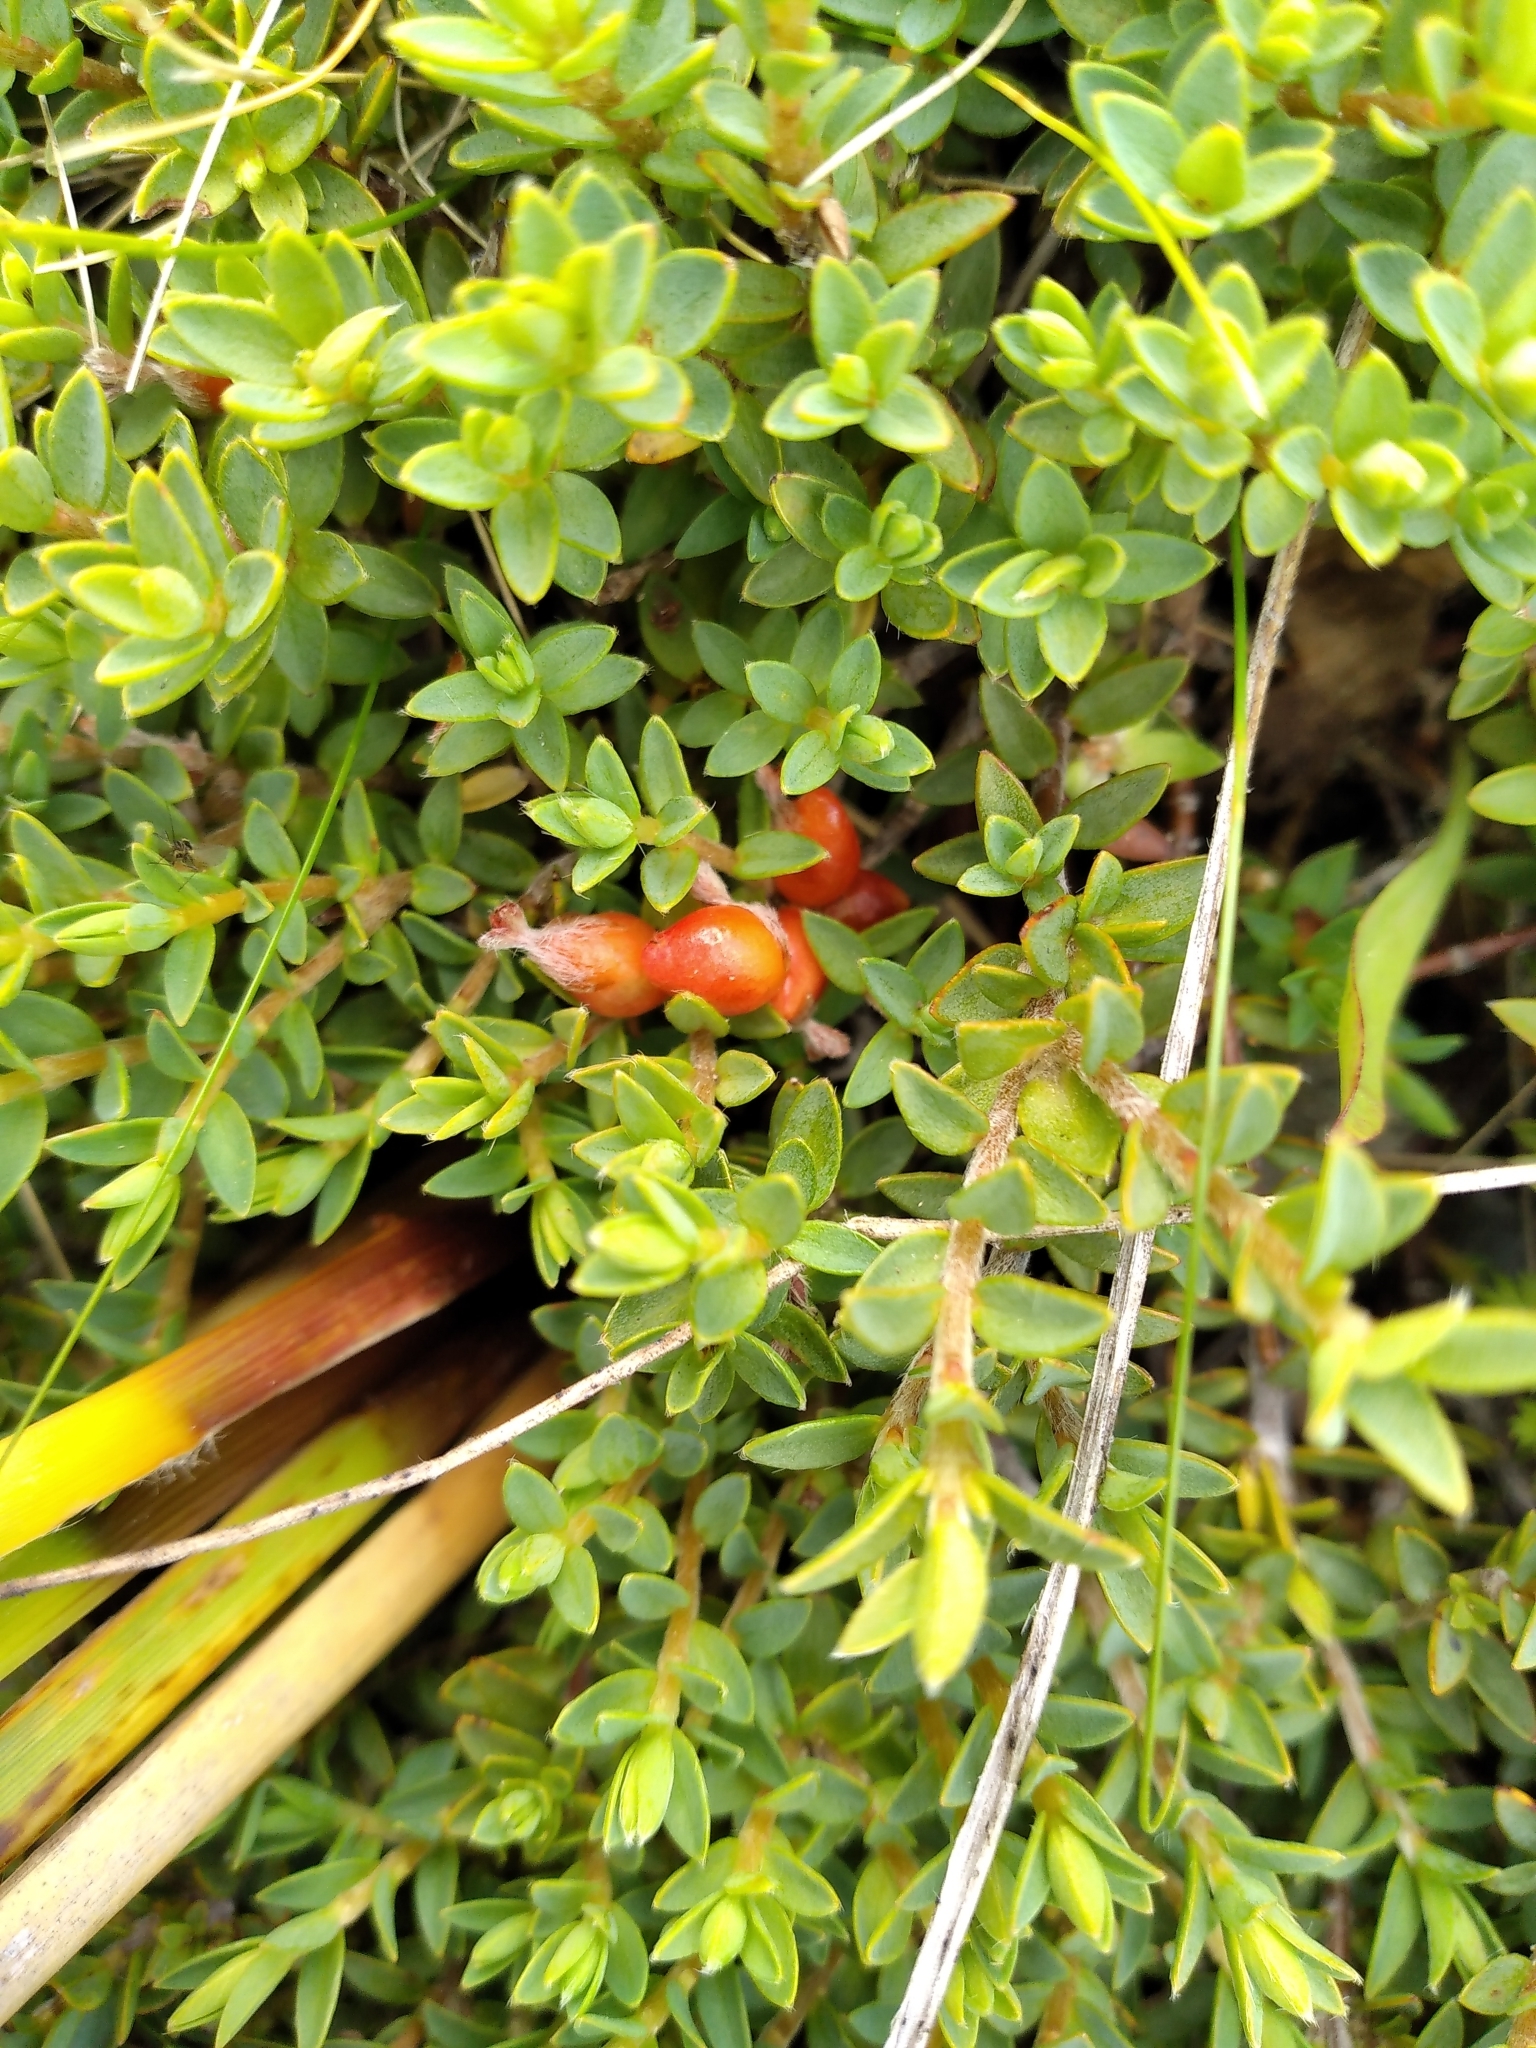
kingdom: Plantae
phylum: Tracheophyta
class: Magnoliopsida
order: Malvales
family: Thymelaeaceae
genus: Pimelea
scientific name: Pimelea oreophila
